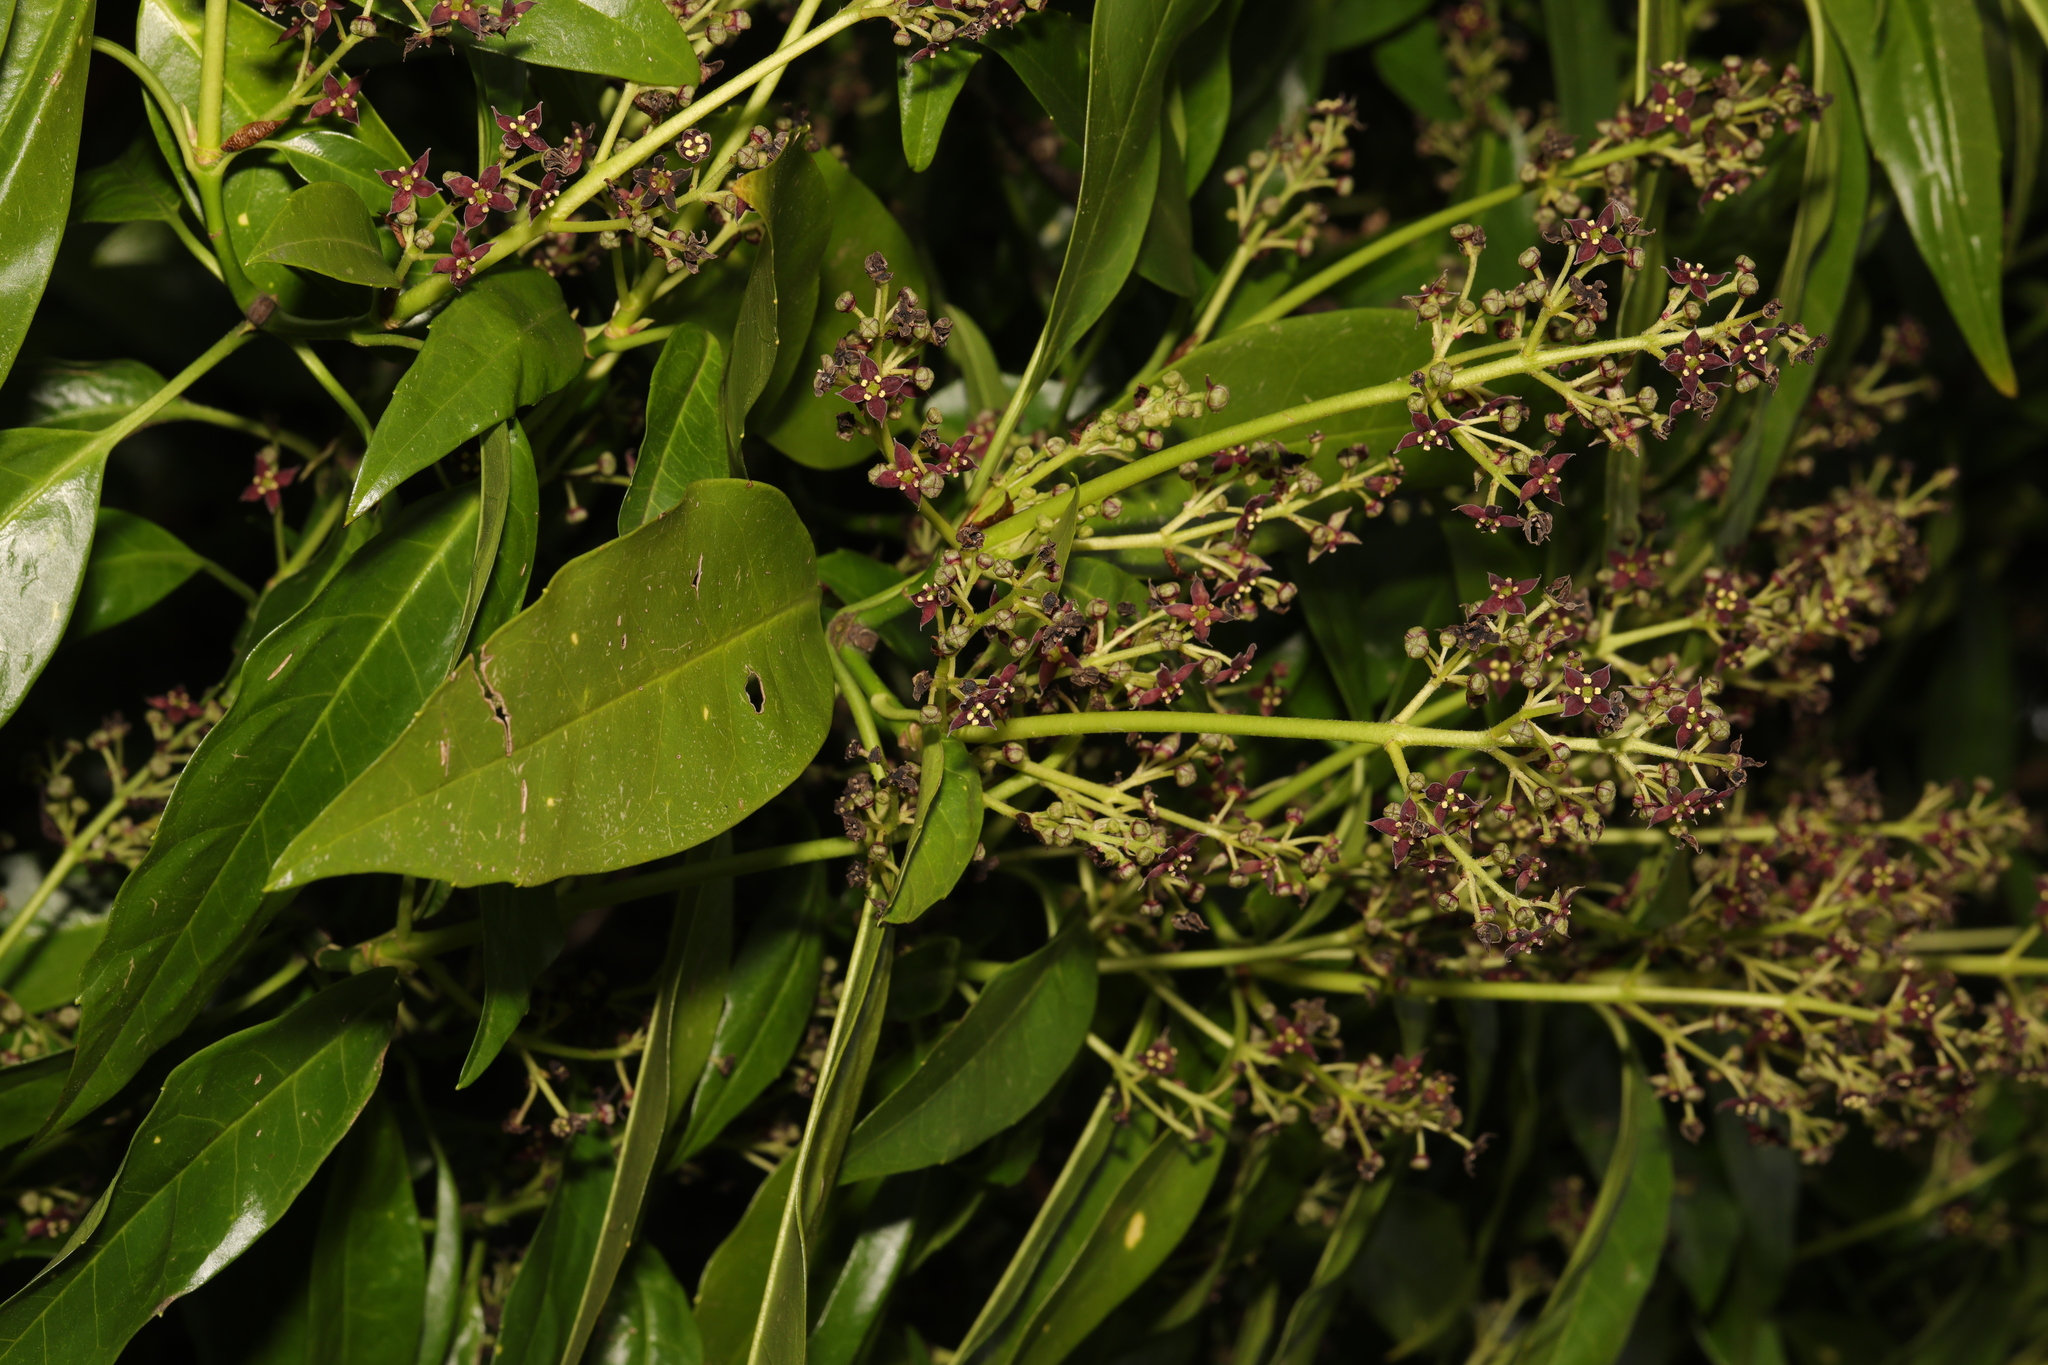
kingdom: Plantae
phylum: Tracheophyta
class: Magnoliopsida
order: Garryales
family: Garryaceae
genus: Aucuba
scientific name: Aucuba japonica
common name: Spotted-laurel
